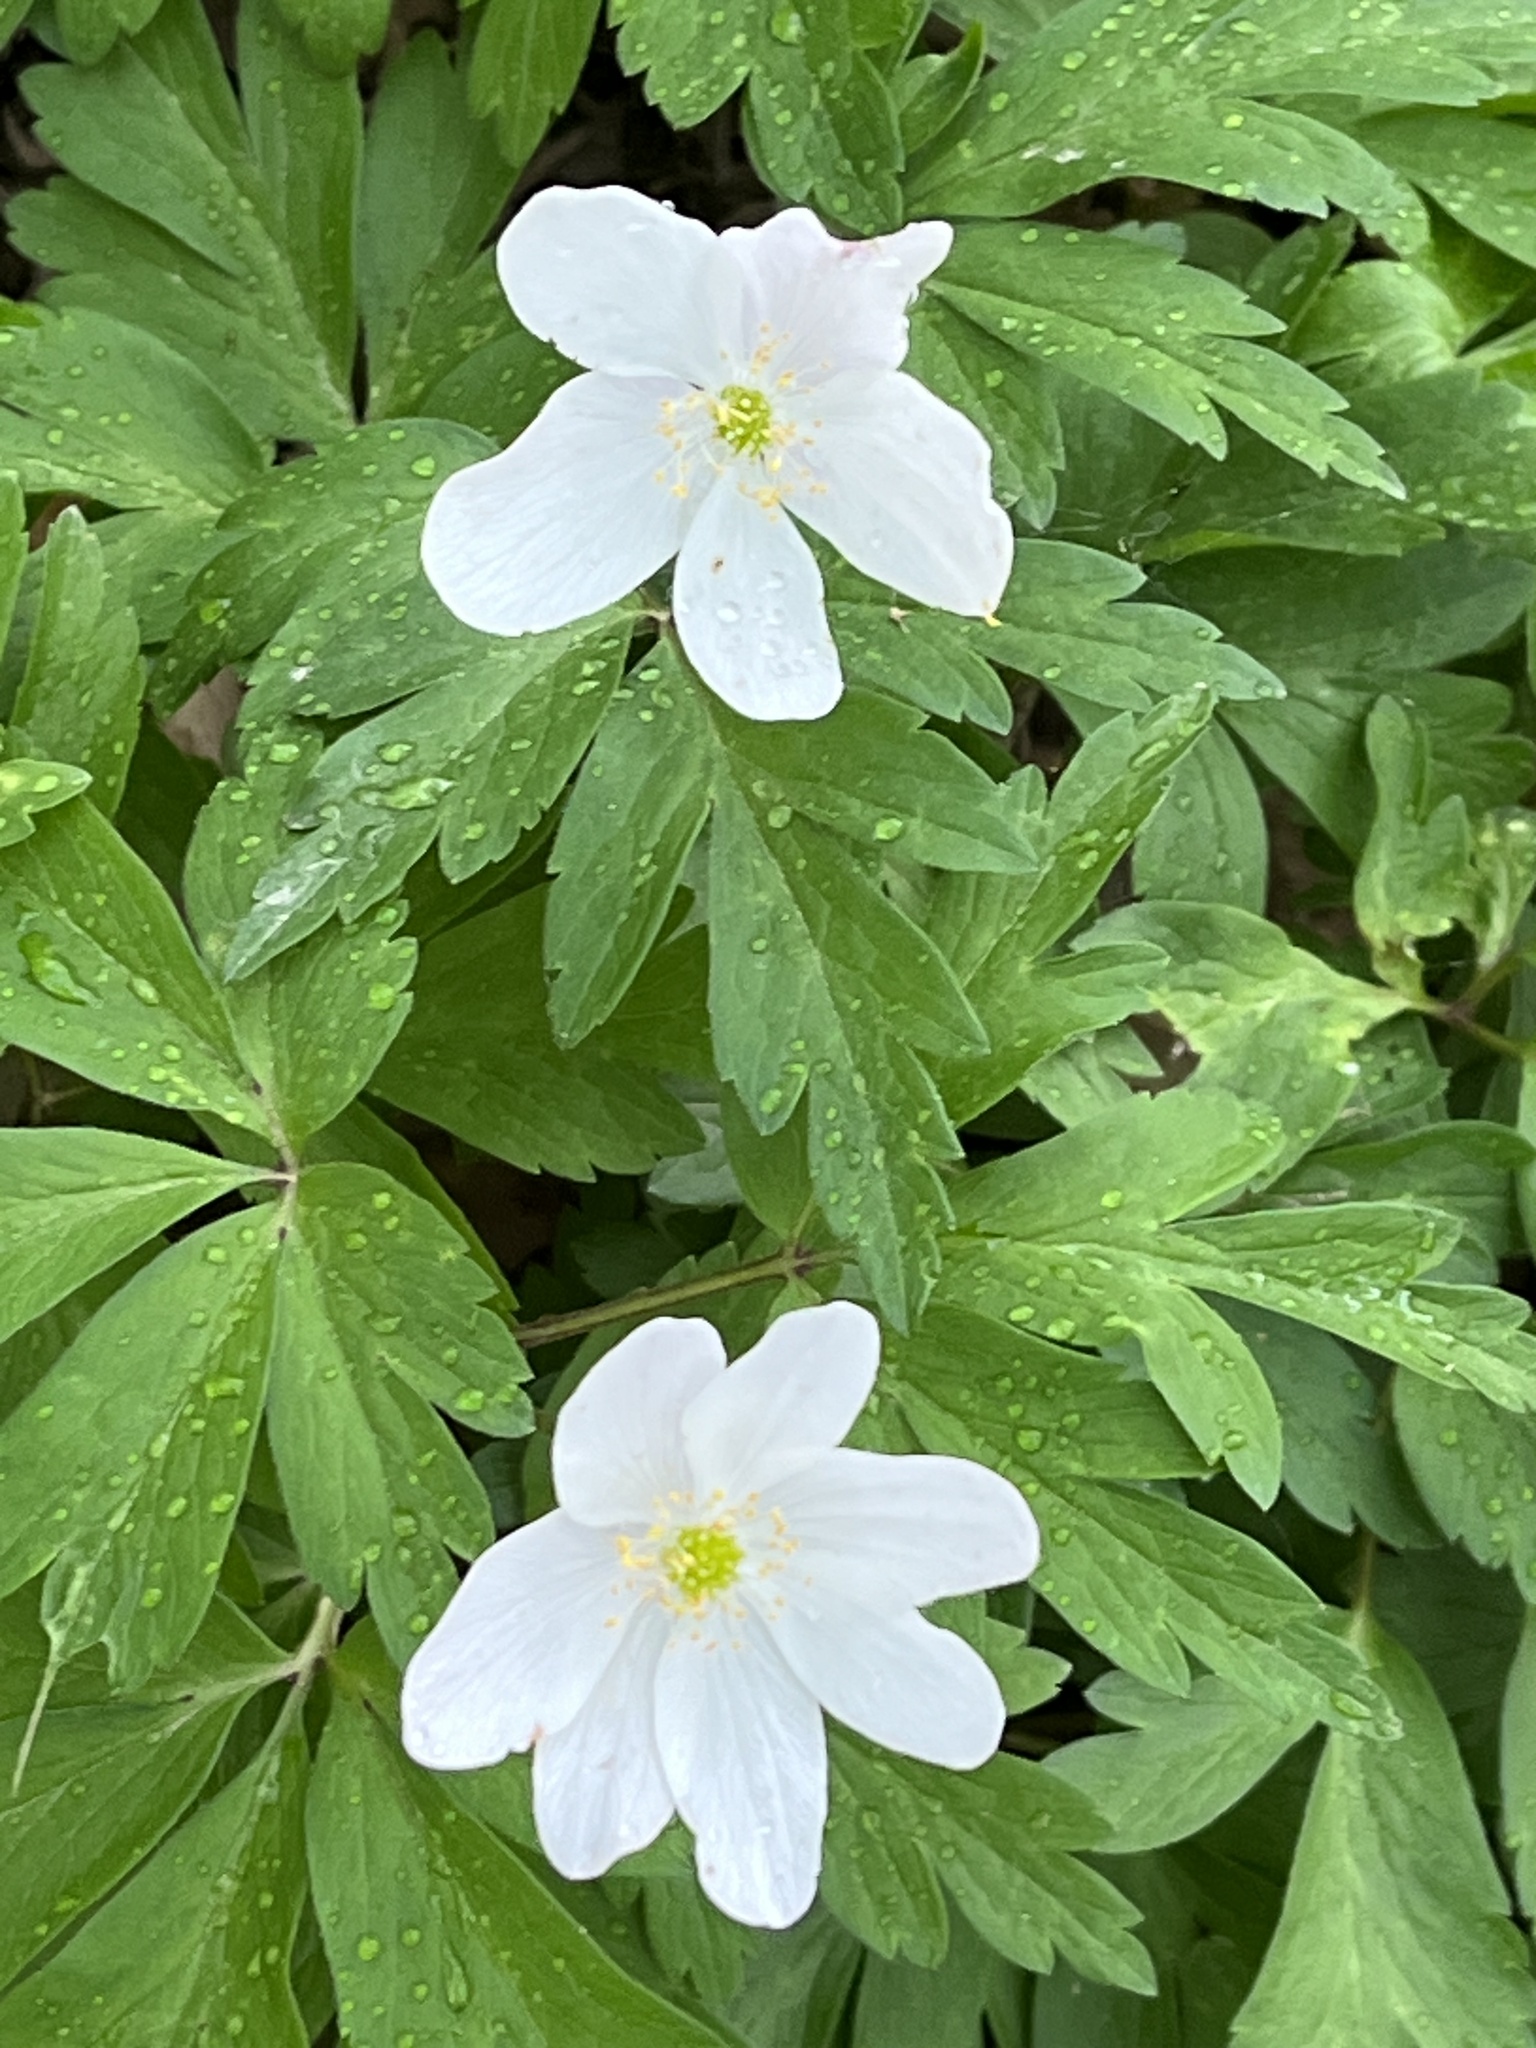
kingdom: Plantae
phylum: Tracheophyta
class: Magnoliopsida
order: Ranunculales
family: Ranunculaceae
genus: Anemone
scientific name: Anemone nemorosa
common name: Wood anemone
